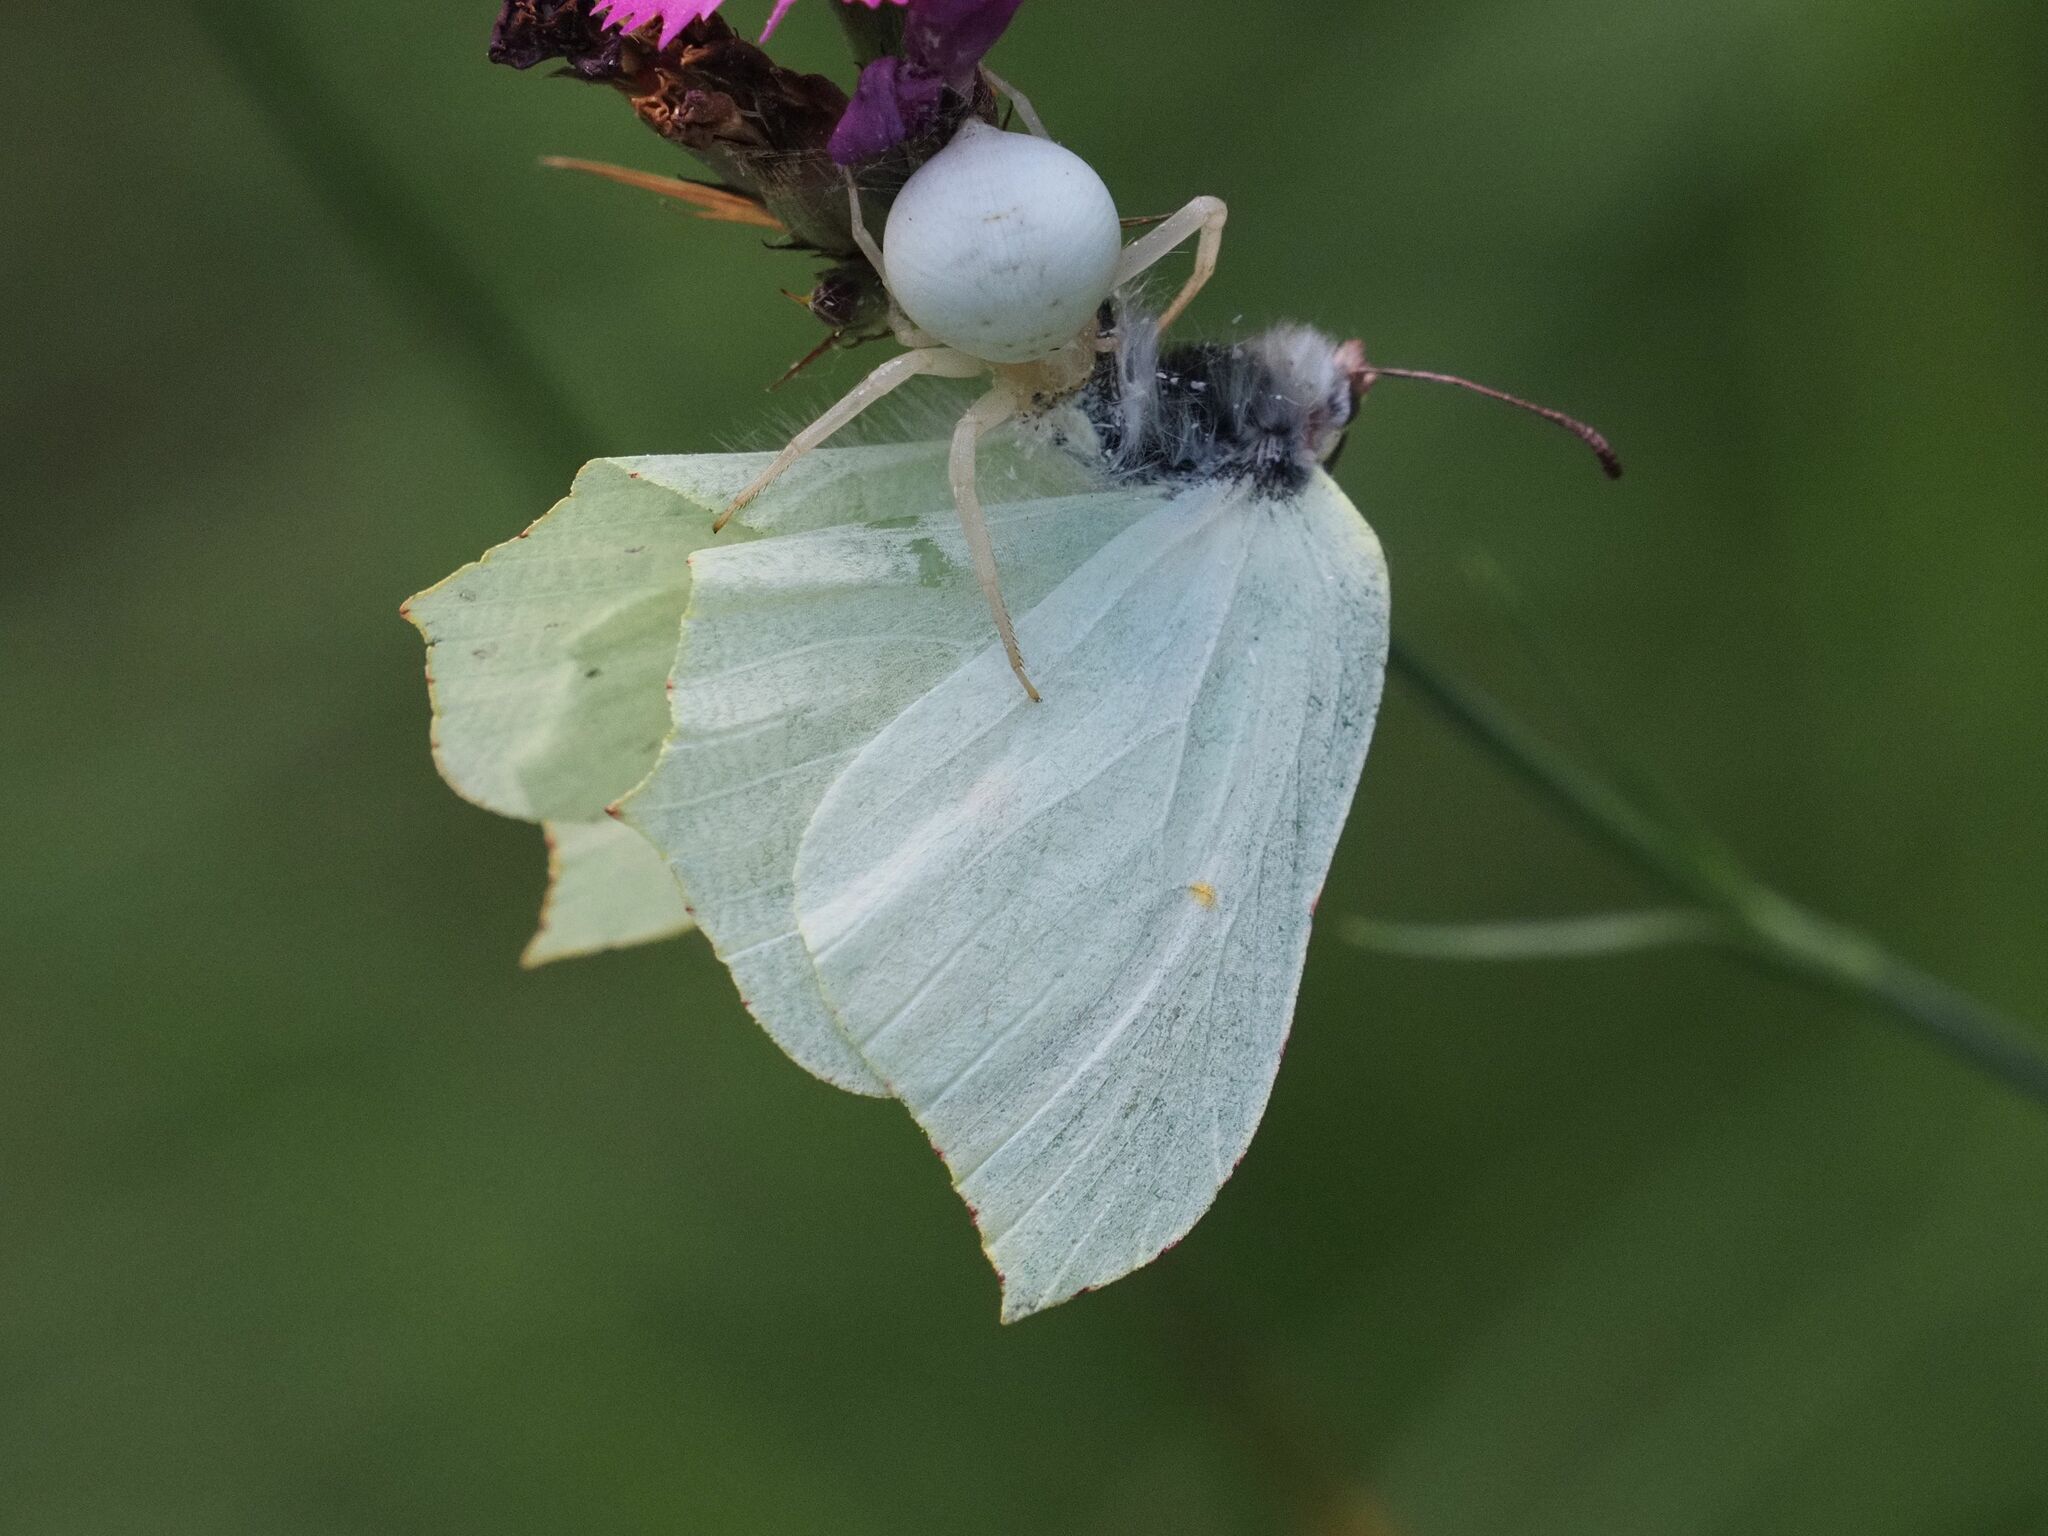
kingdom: Animalia
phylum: Arthropoda
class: Insecta
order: Lepidoptera
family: Pieridae
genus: Gonepteryx
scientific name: Gonepteryx rhamni
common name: Brimstone
